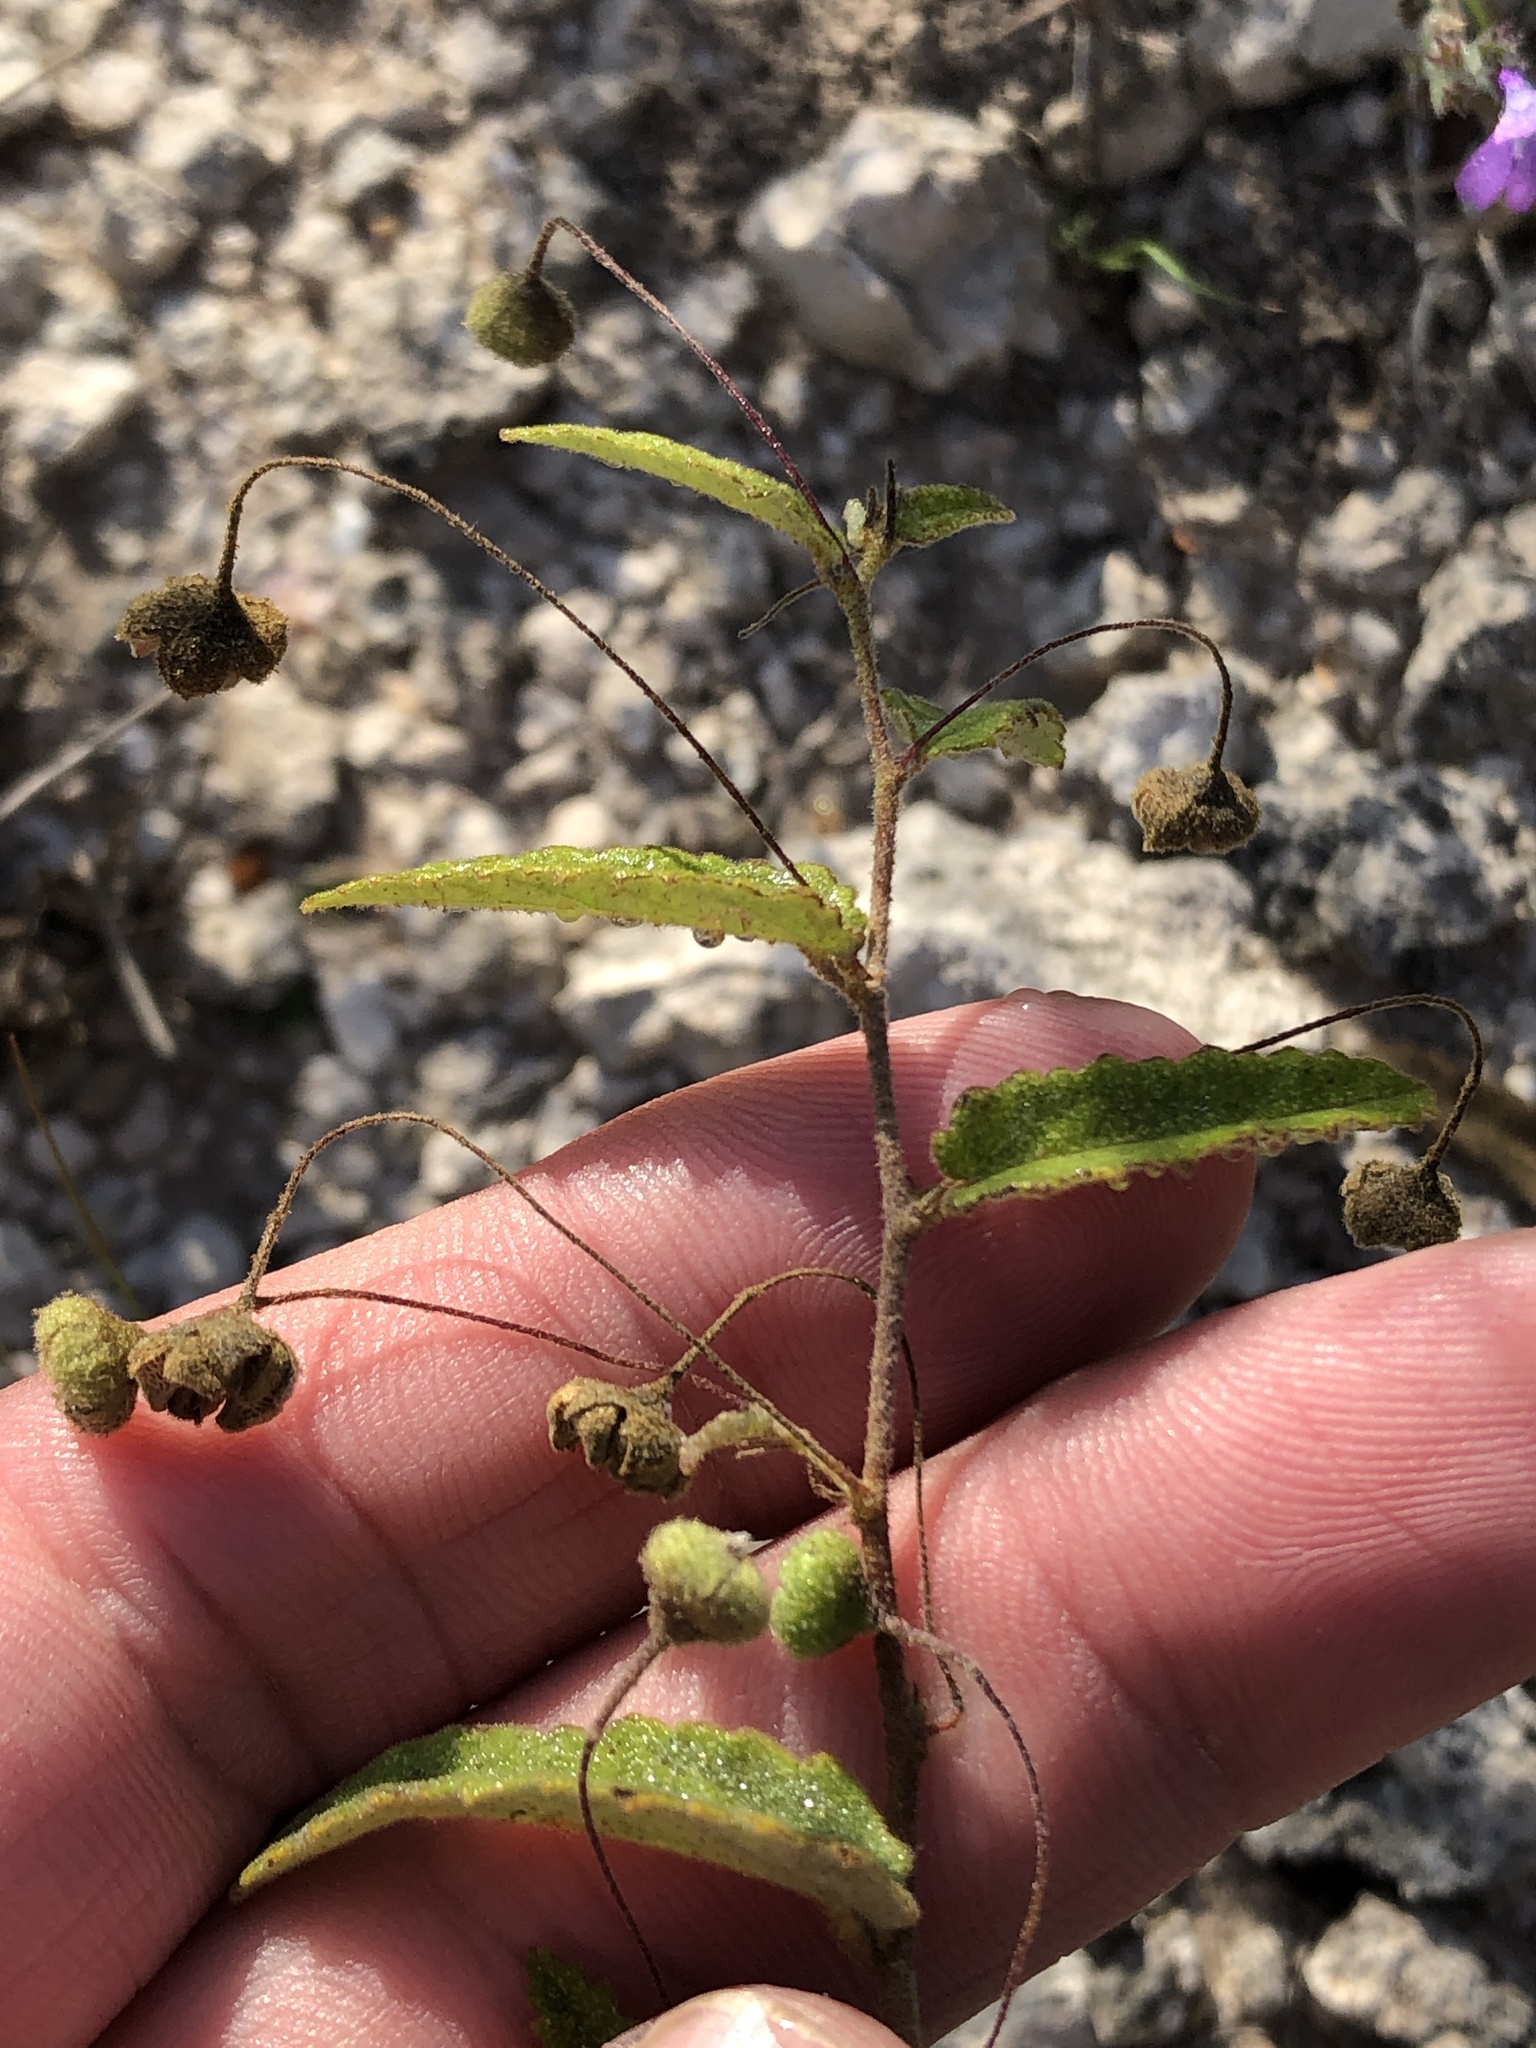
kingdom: Plantae
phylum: Tracheophyta
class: Magnoliopsida
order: Malvales
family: Malvaceae
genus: Meximalva
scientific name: Meximalva filipes
